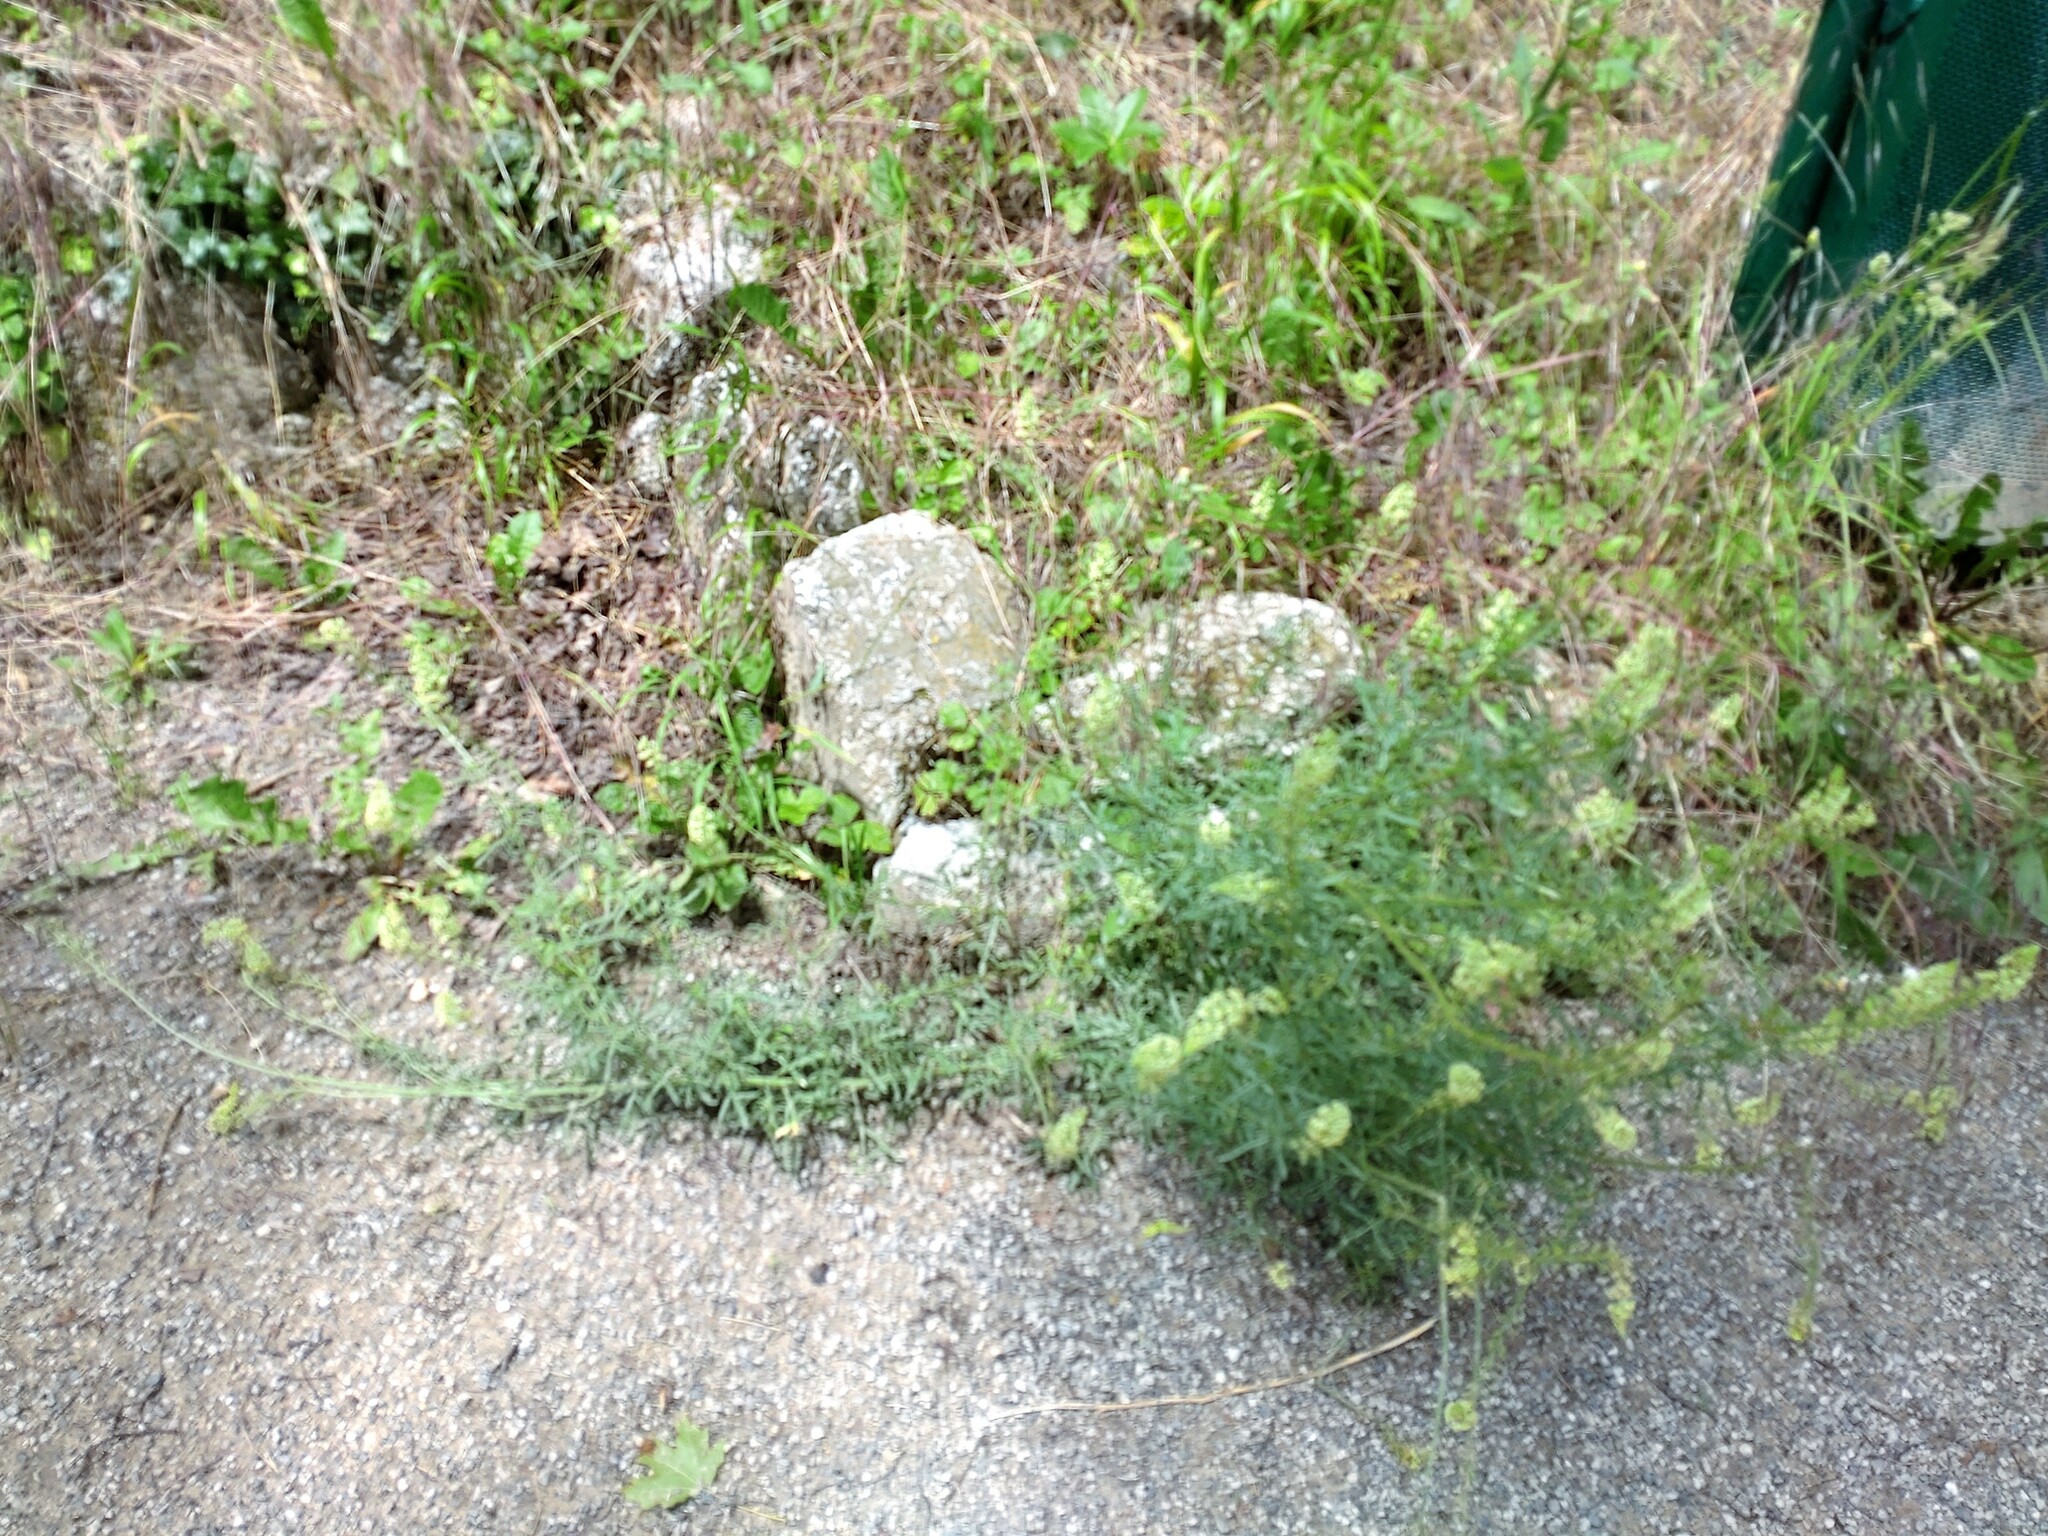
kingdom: Plantae
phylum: Tracheophyta
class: Magnoliopsida
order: Brassicales
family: Resedaceae
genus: Reseda
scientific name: Reseda lutea
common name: Wild mignonette
